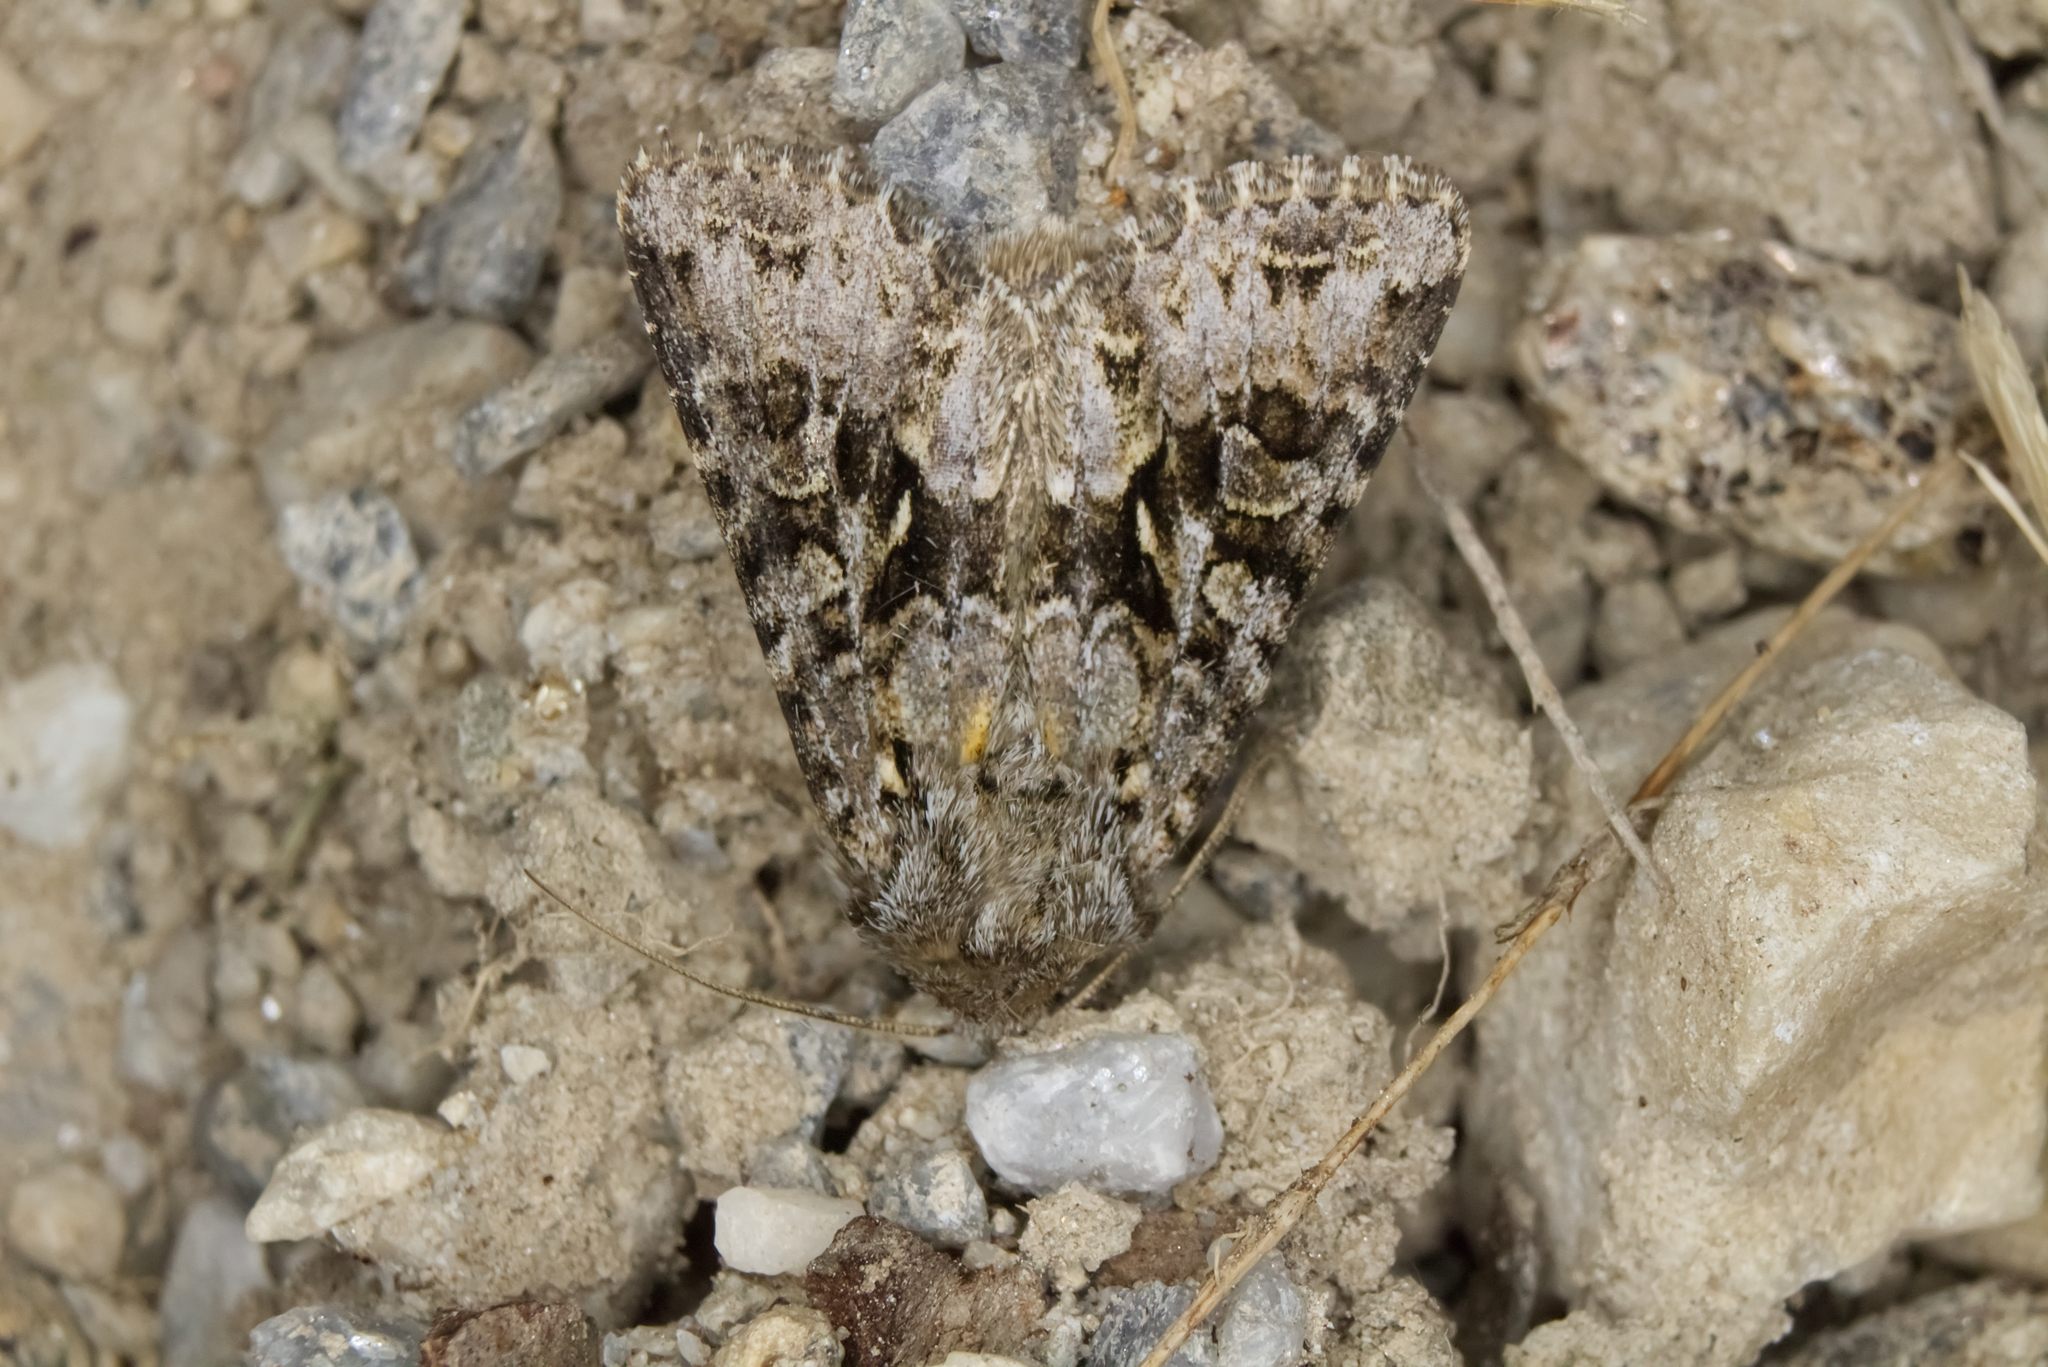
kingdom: Animalia
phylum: Arthropoda
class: Insecta
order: Lepidoptera
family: Noctuidae
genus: Hada
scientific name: Hada plebeja
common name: Shears
